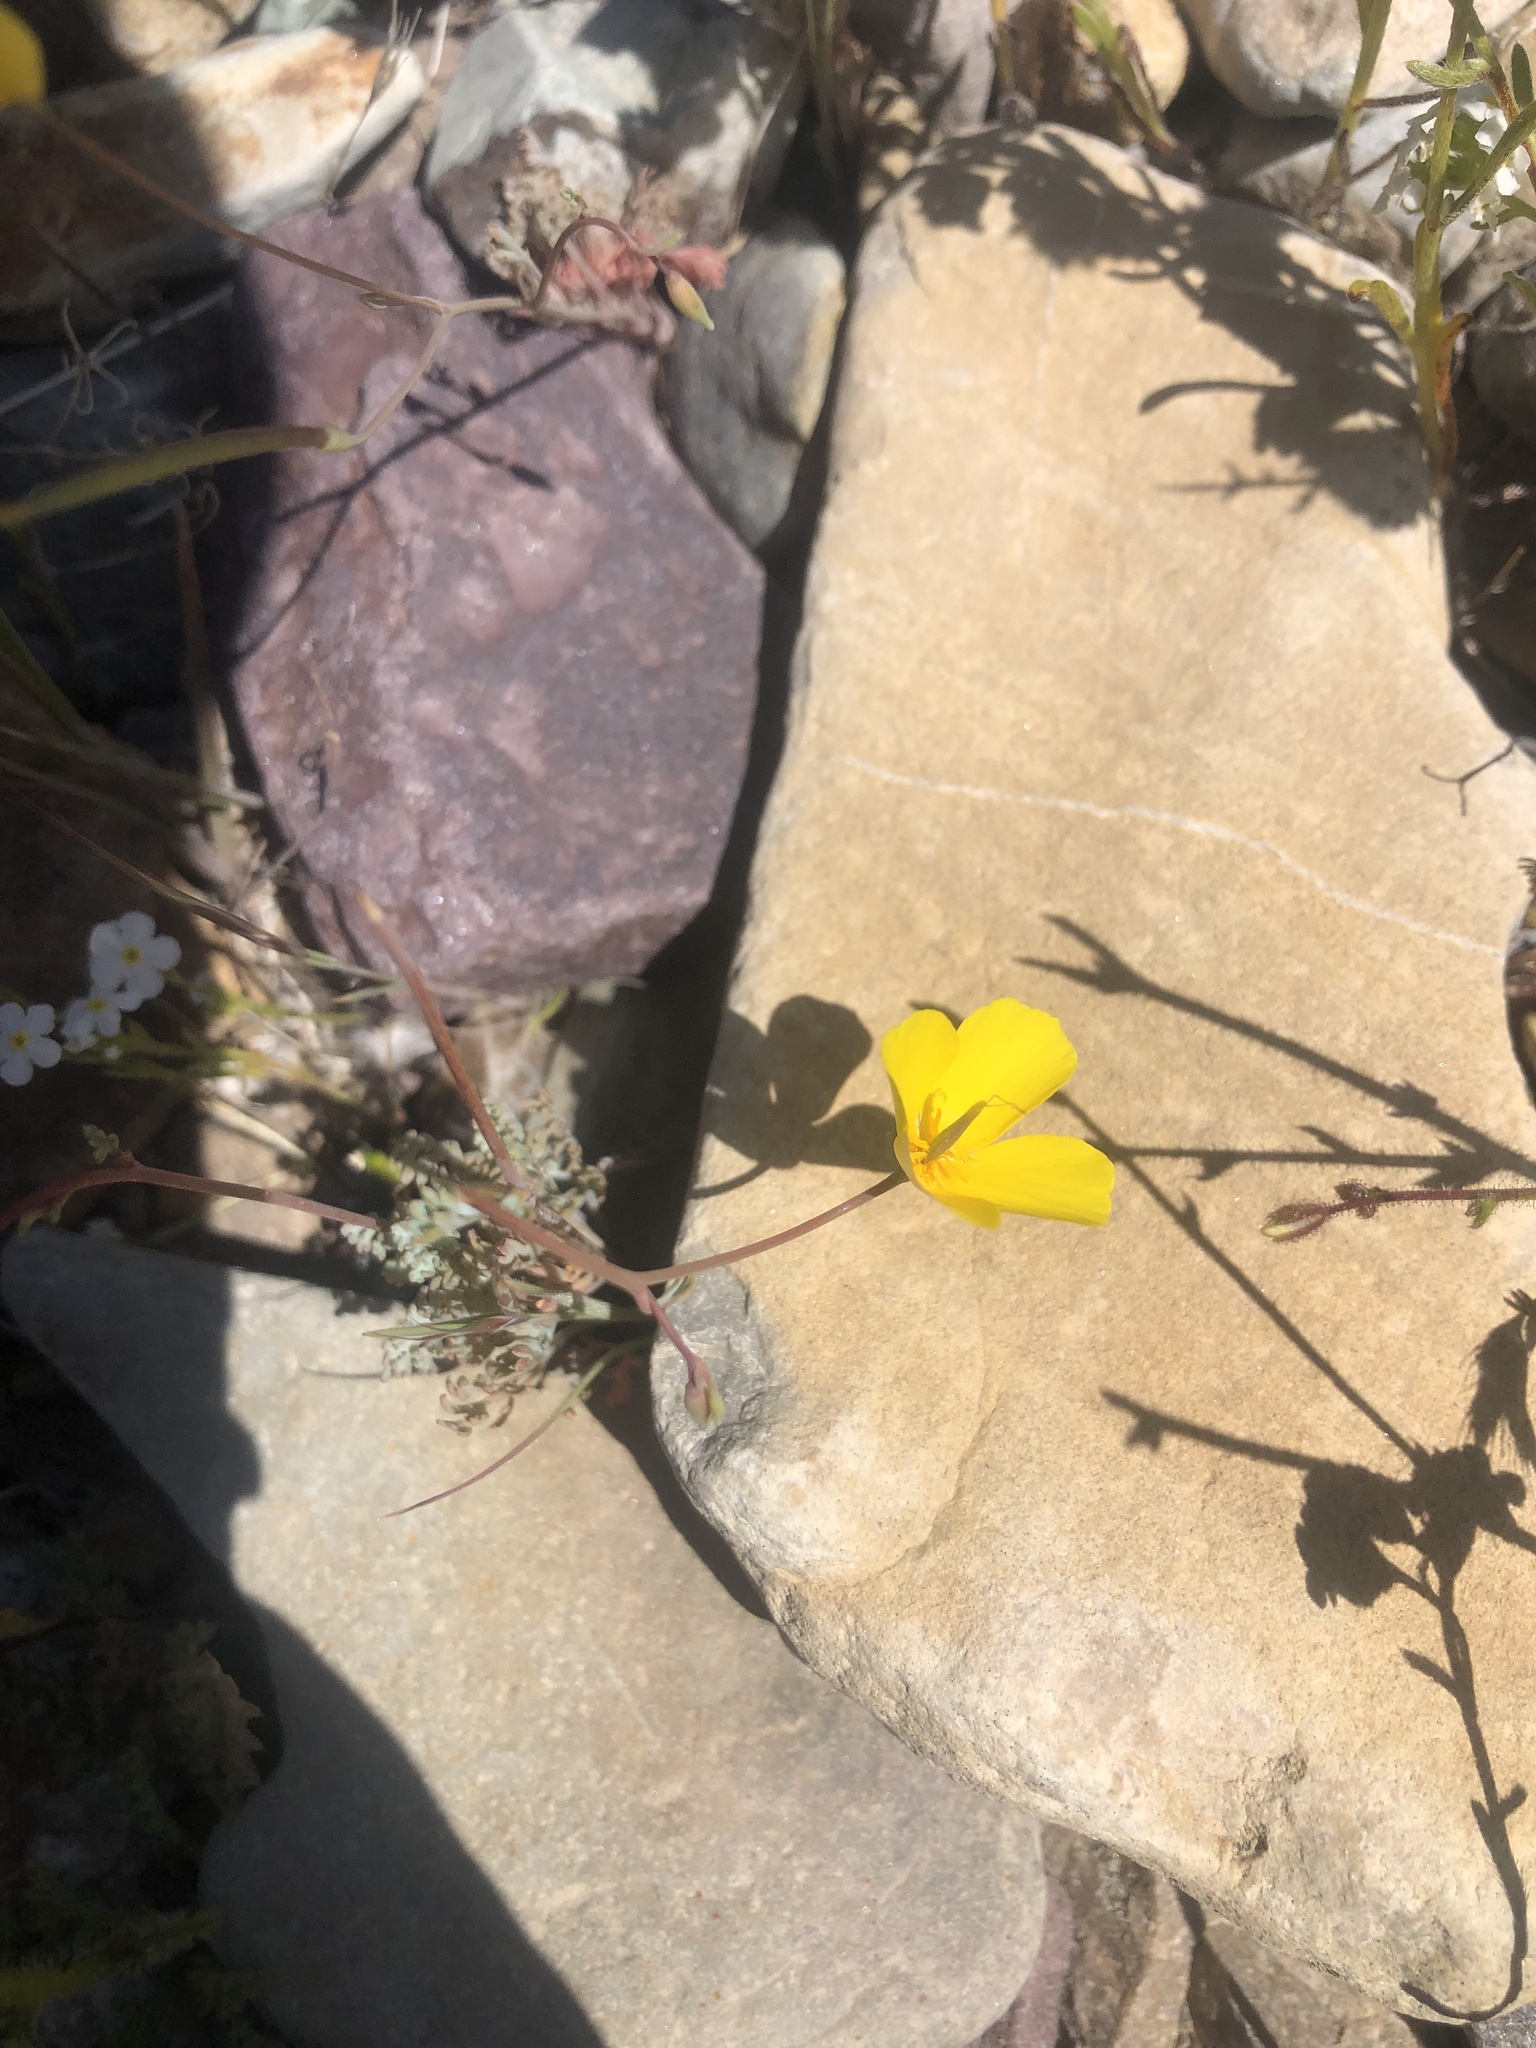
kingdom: Plantae
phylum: Tracheophyta
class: Magnoliopsida
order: Ranunculales
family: Papaveraceae
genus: Eschscholzia
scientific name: Eschscholzia minutiflora
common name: Small-flower california-poppy
